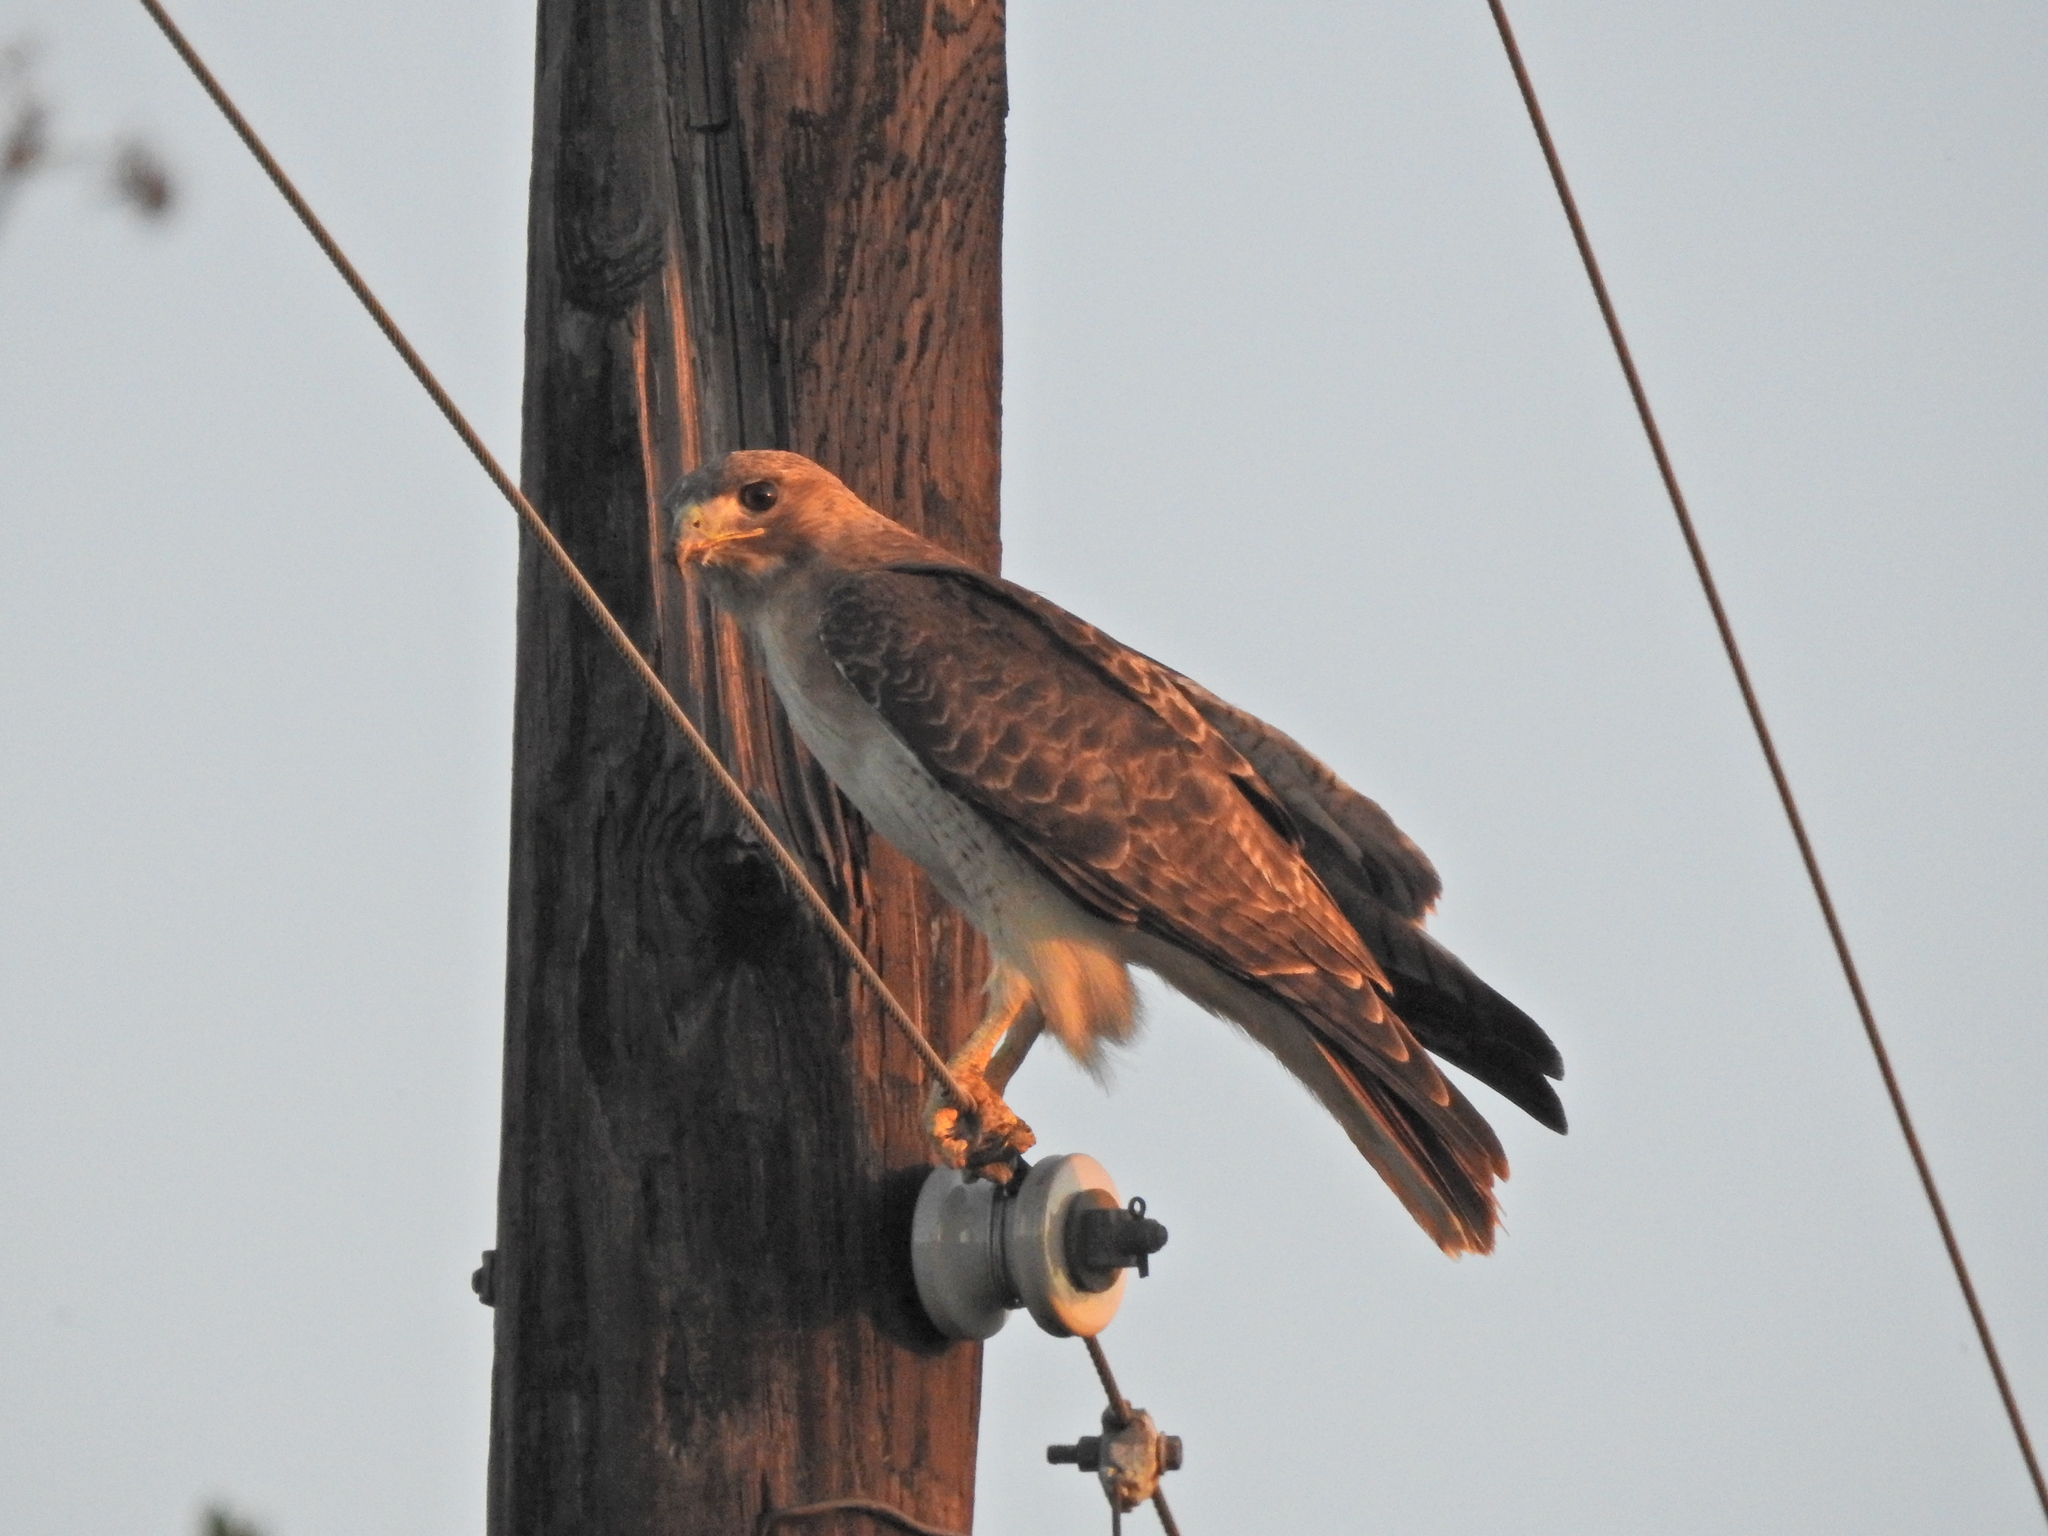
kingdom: Animalia
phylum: Chordata
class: Aves
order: Accipitriformes
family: Accipitridae
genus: Buteo
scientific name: Buteo jamaicensis
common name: Red-tailed hawk
